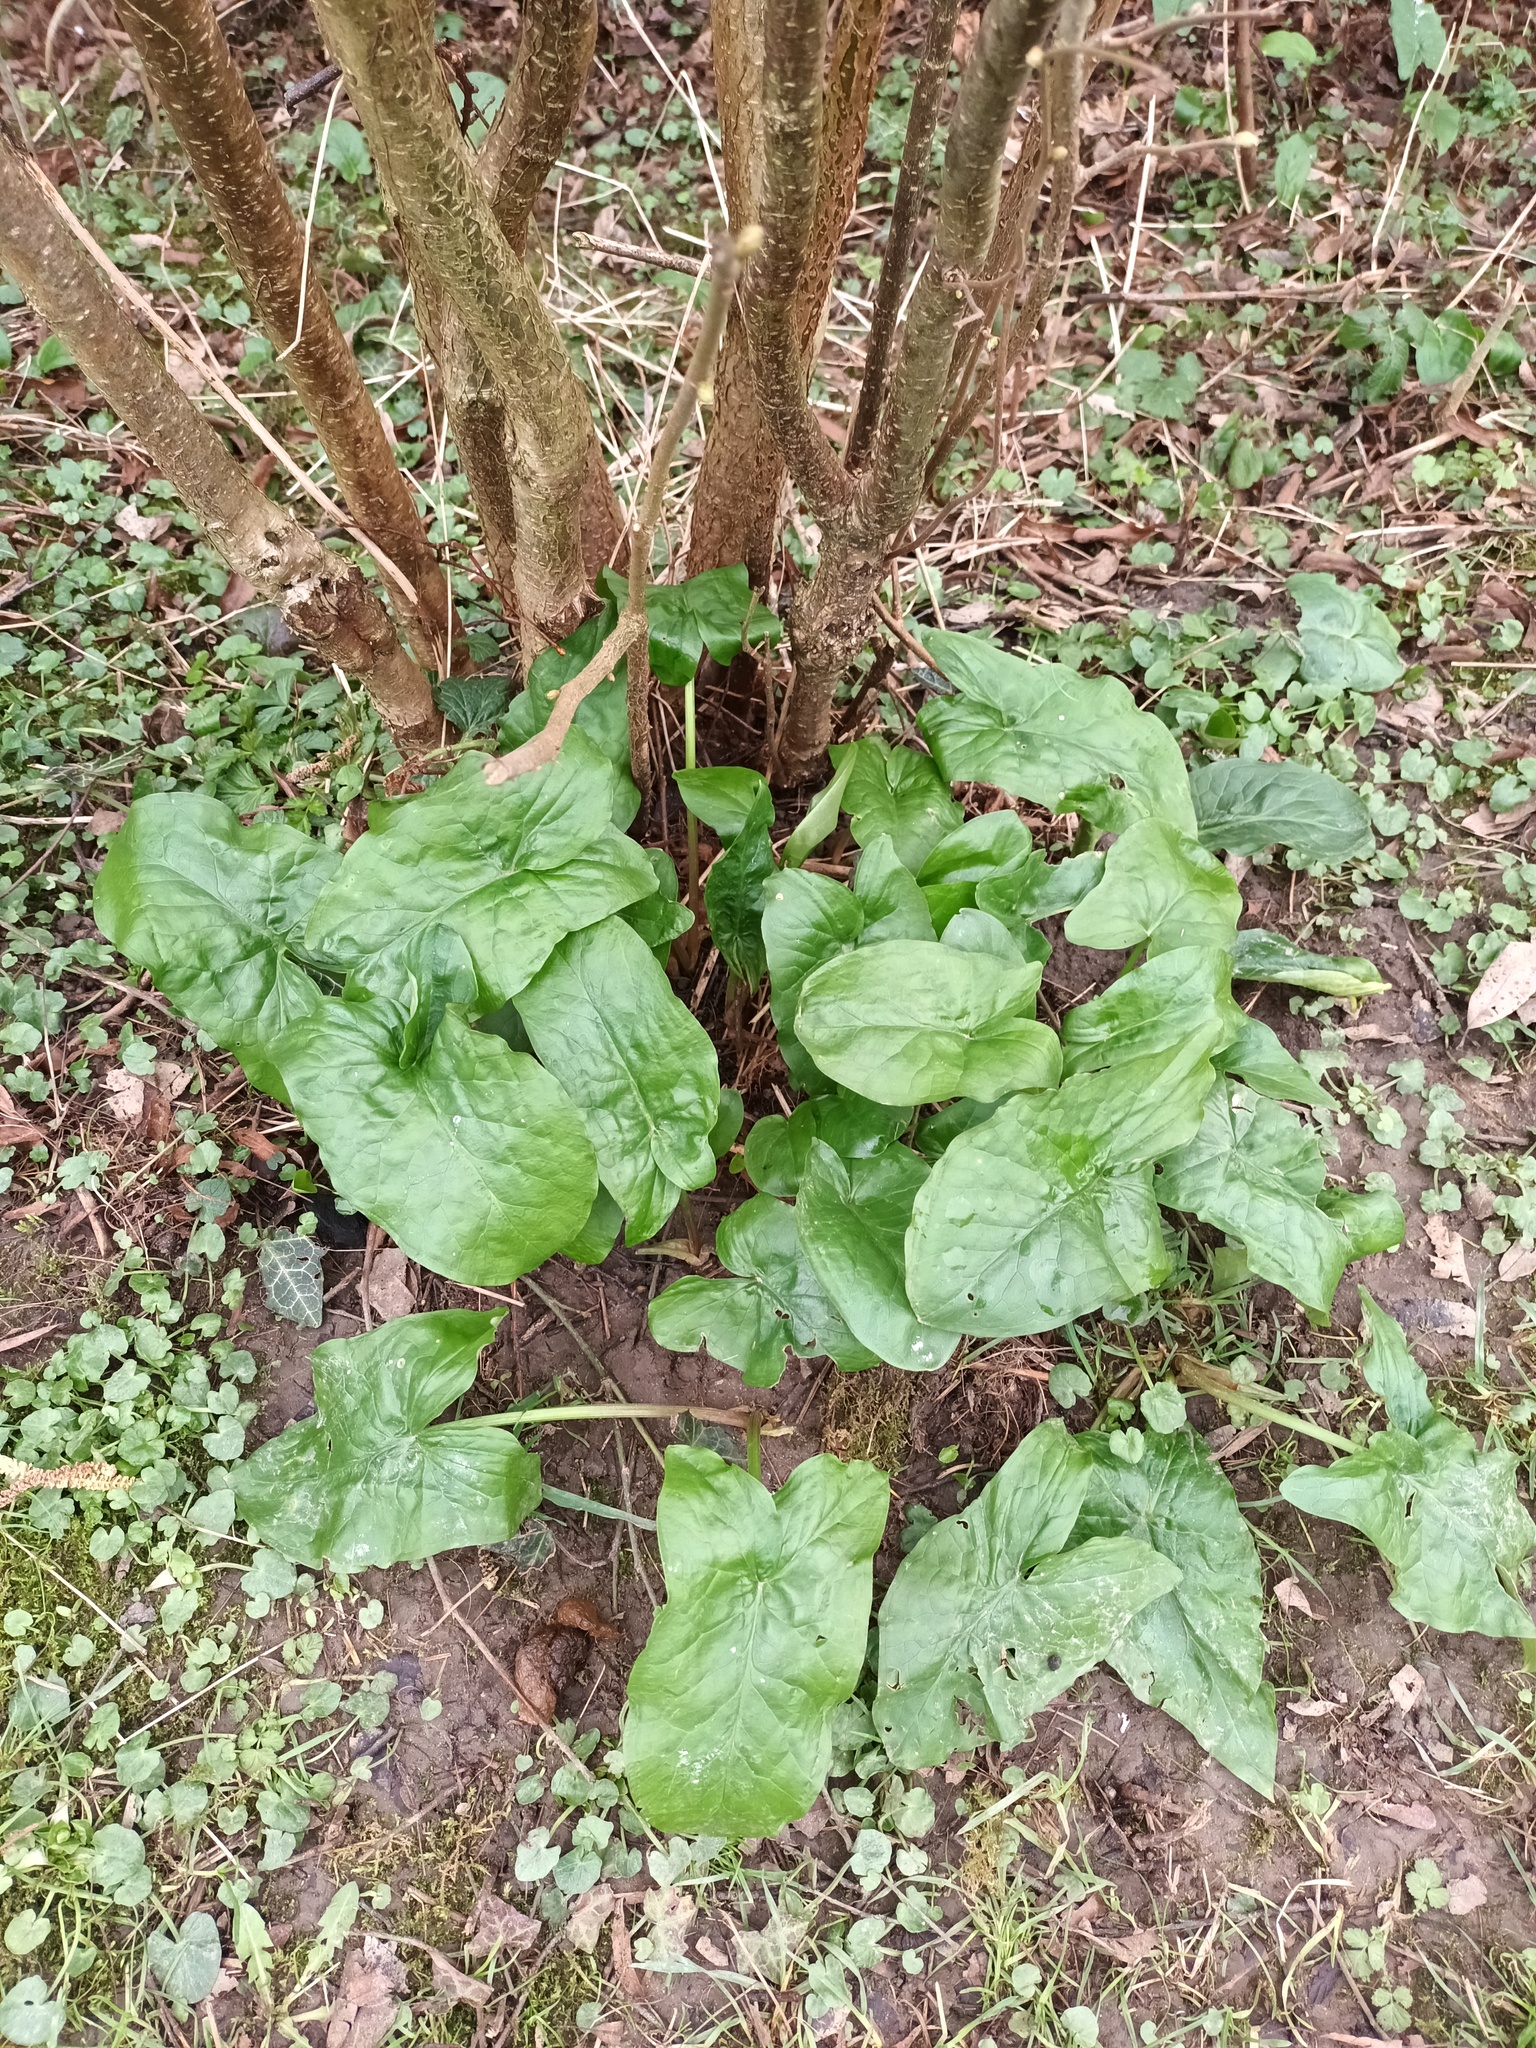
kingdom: Plantae
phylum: Tracheophyta
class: Liliopsida
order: Alismatales
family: Araceae
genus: Arum
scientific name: Arum maculatum
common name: Lords-and-ladies
